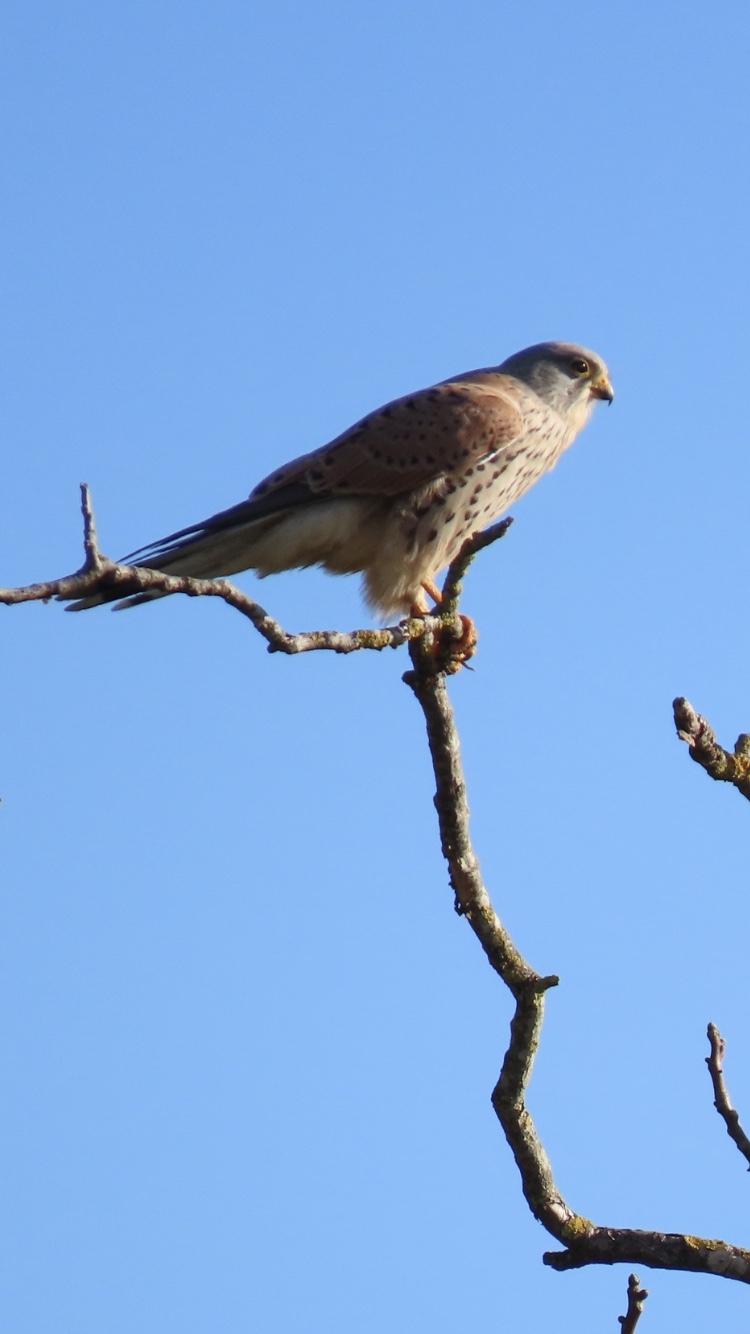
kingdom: Animalia
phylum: Chordata
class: Aves
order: Falconiformes
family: Falconidae
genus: Falco
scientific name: Falco tinnunculus
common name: Common kestrel
